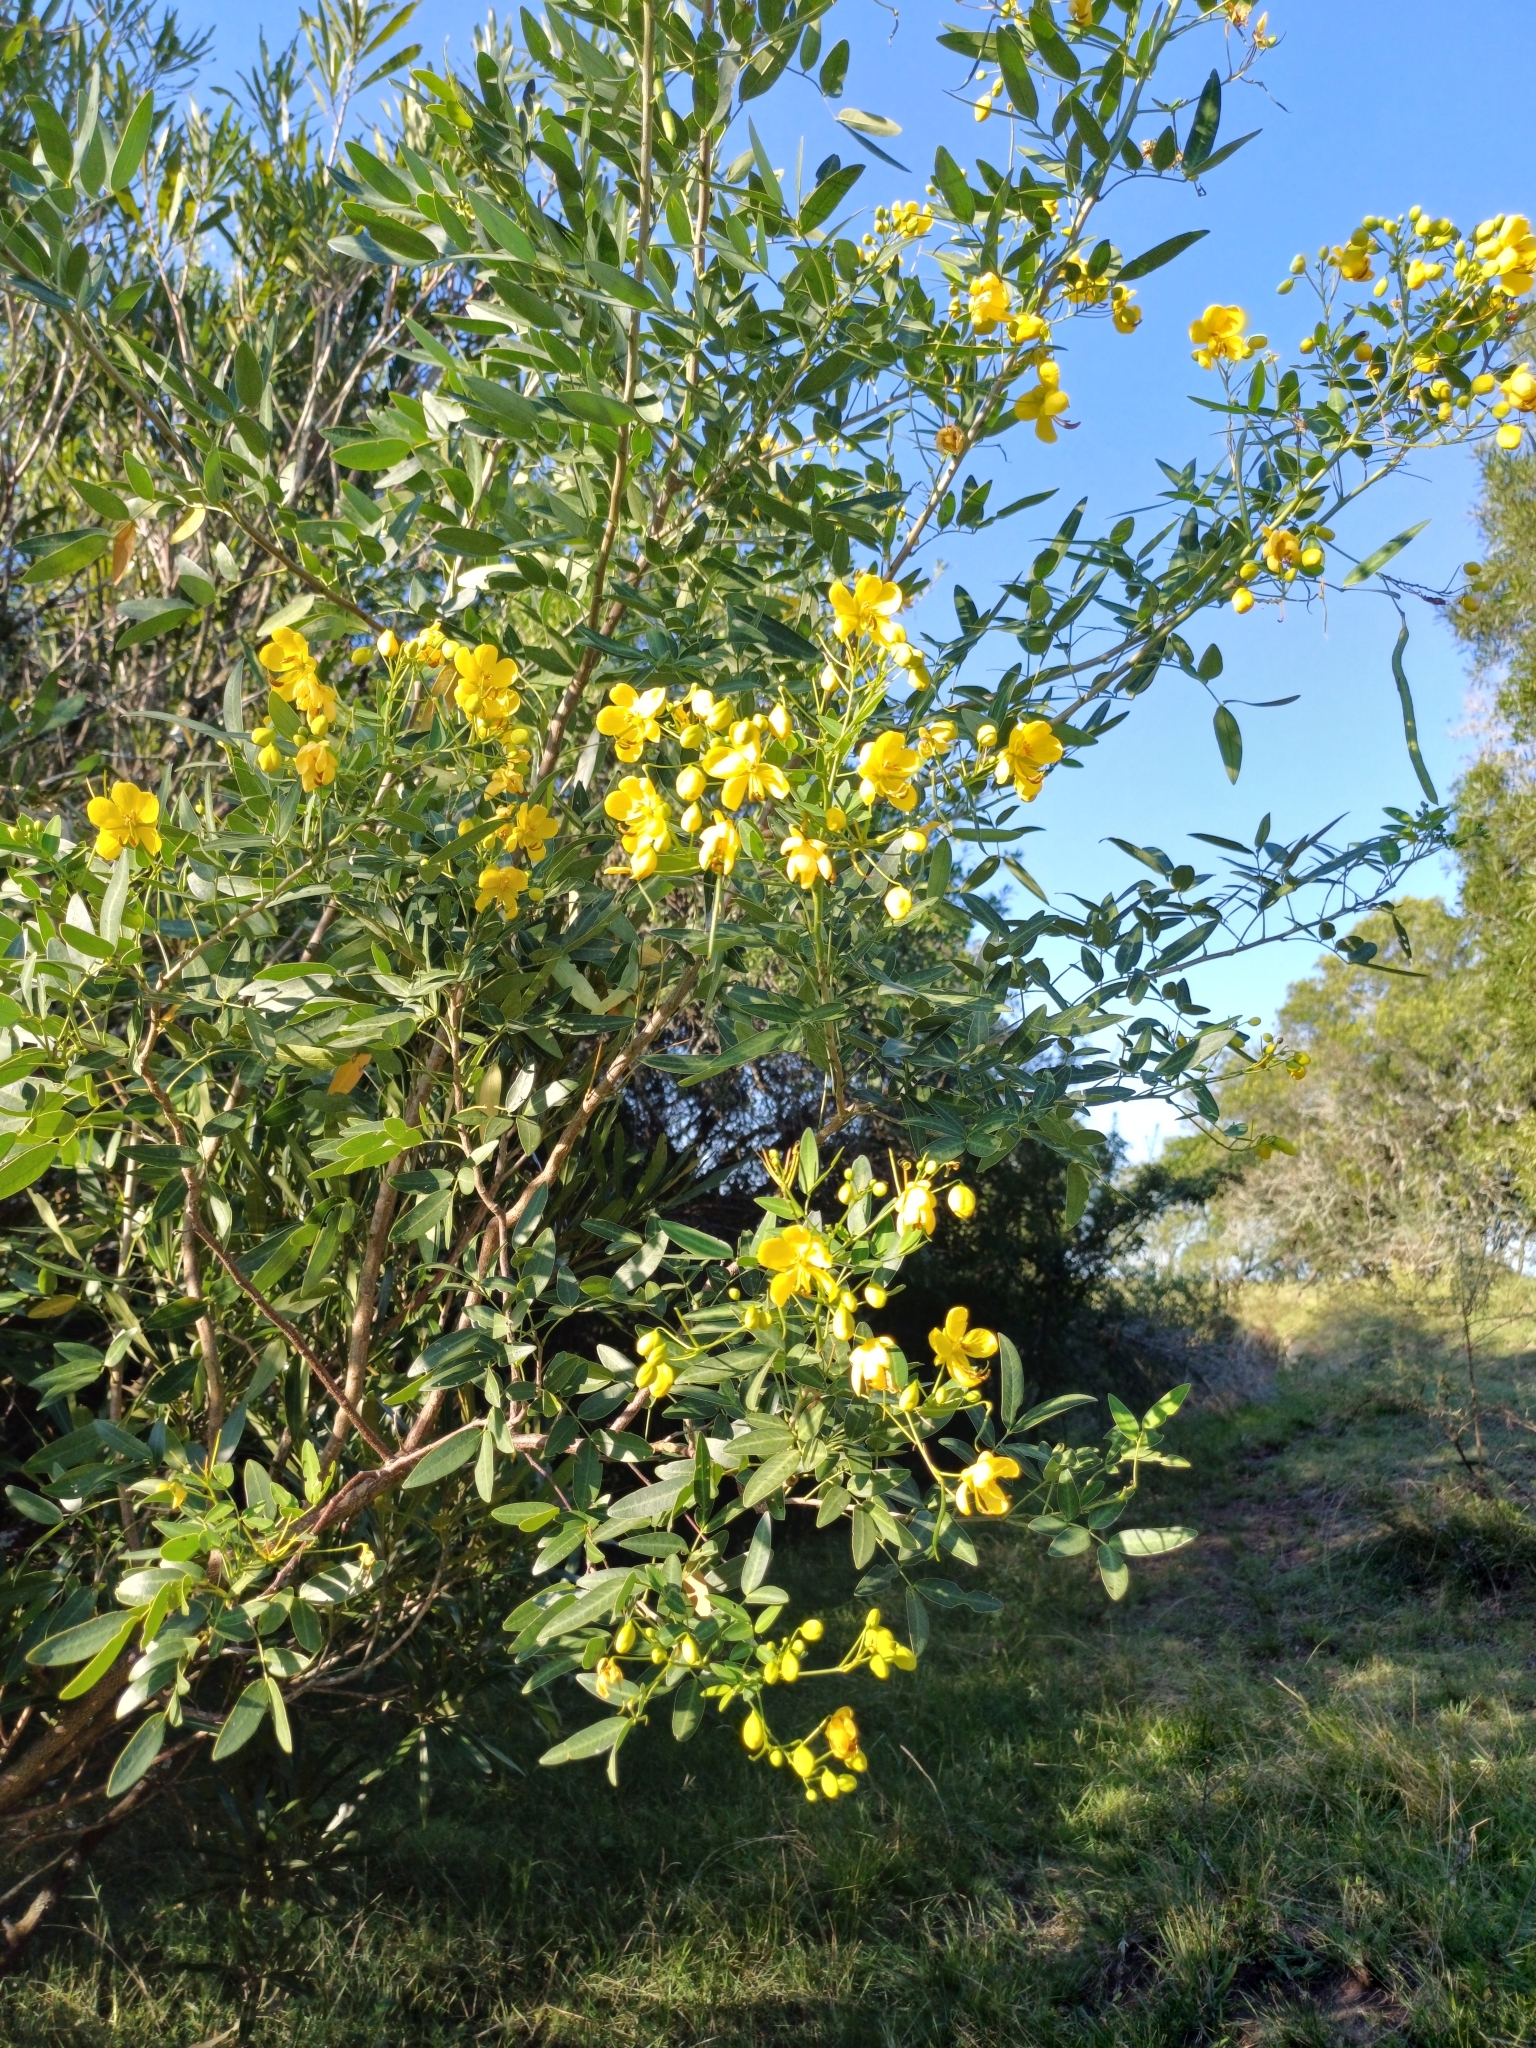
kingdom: Plantae
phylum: Tracheophyta
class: Magnoliopsida
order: Fabales
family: Fabaceae
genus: Senna
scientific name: Senna corymbosa
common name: Argentine senna
